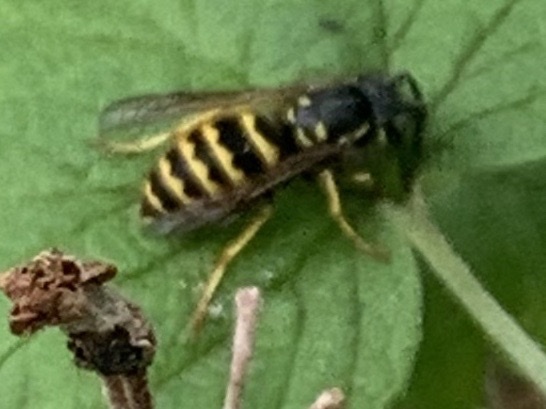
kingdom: Animalia
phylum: Arthropoda
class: Insecta
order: Hymenoptera
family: Vespidae
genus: Vespula
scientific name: Vespula alascensis
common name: Alaska yellowjacket
